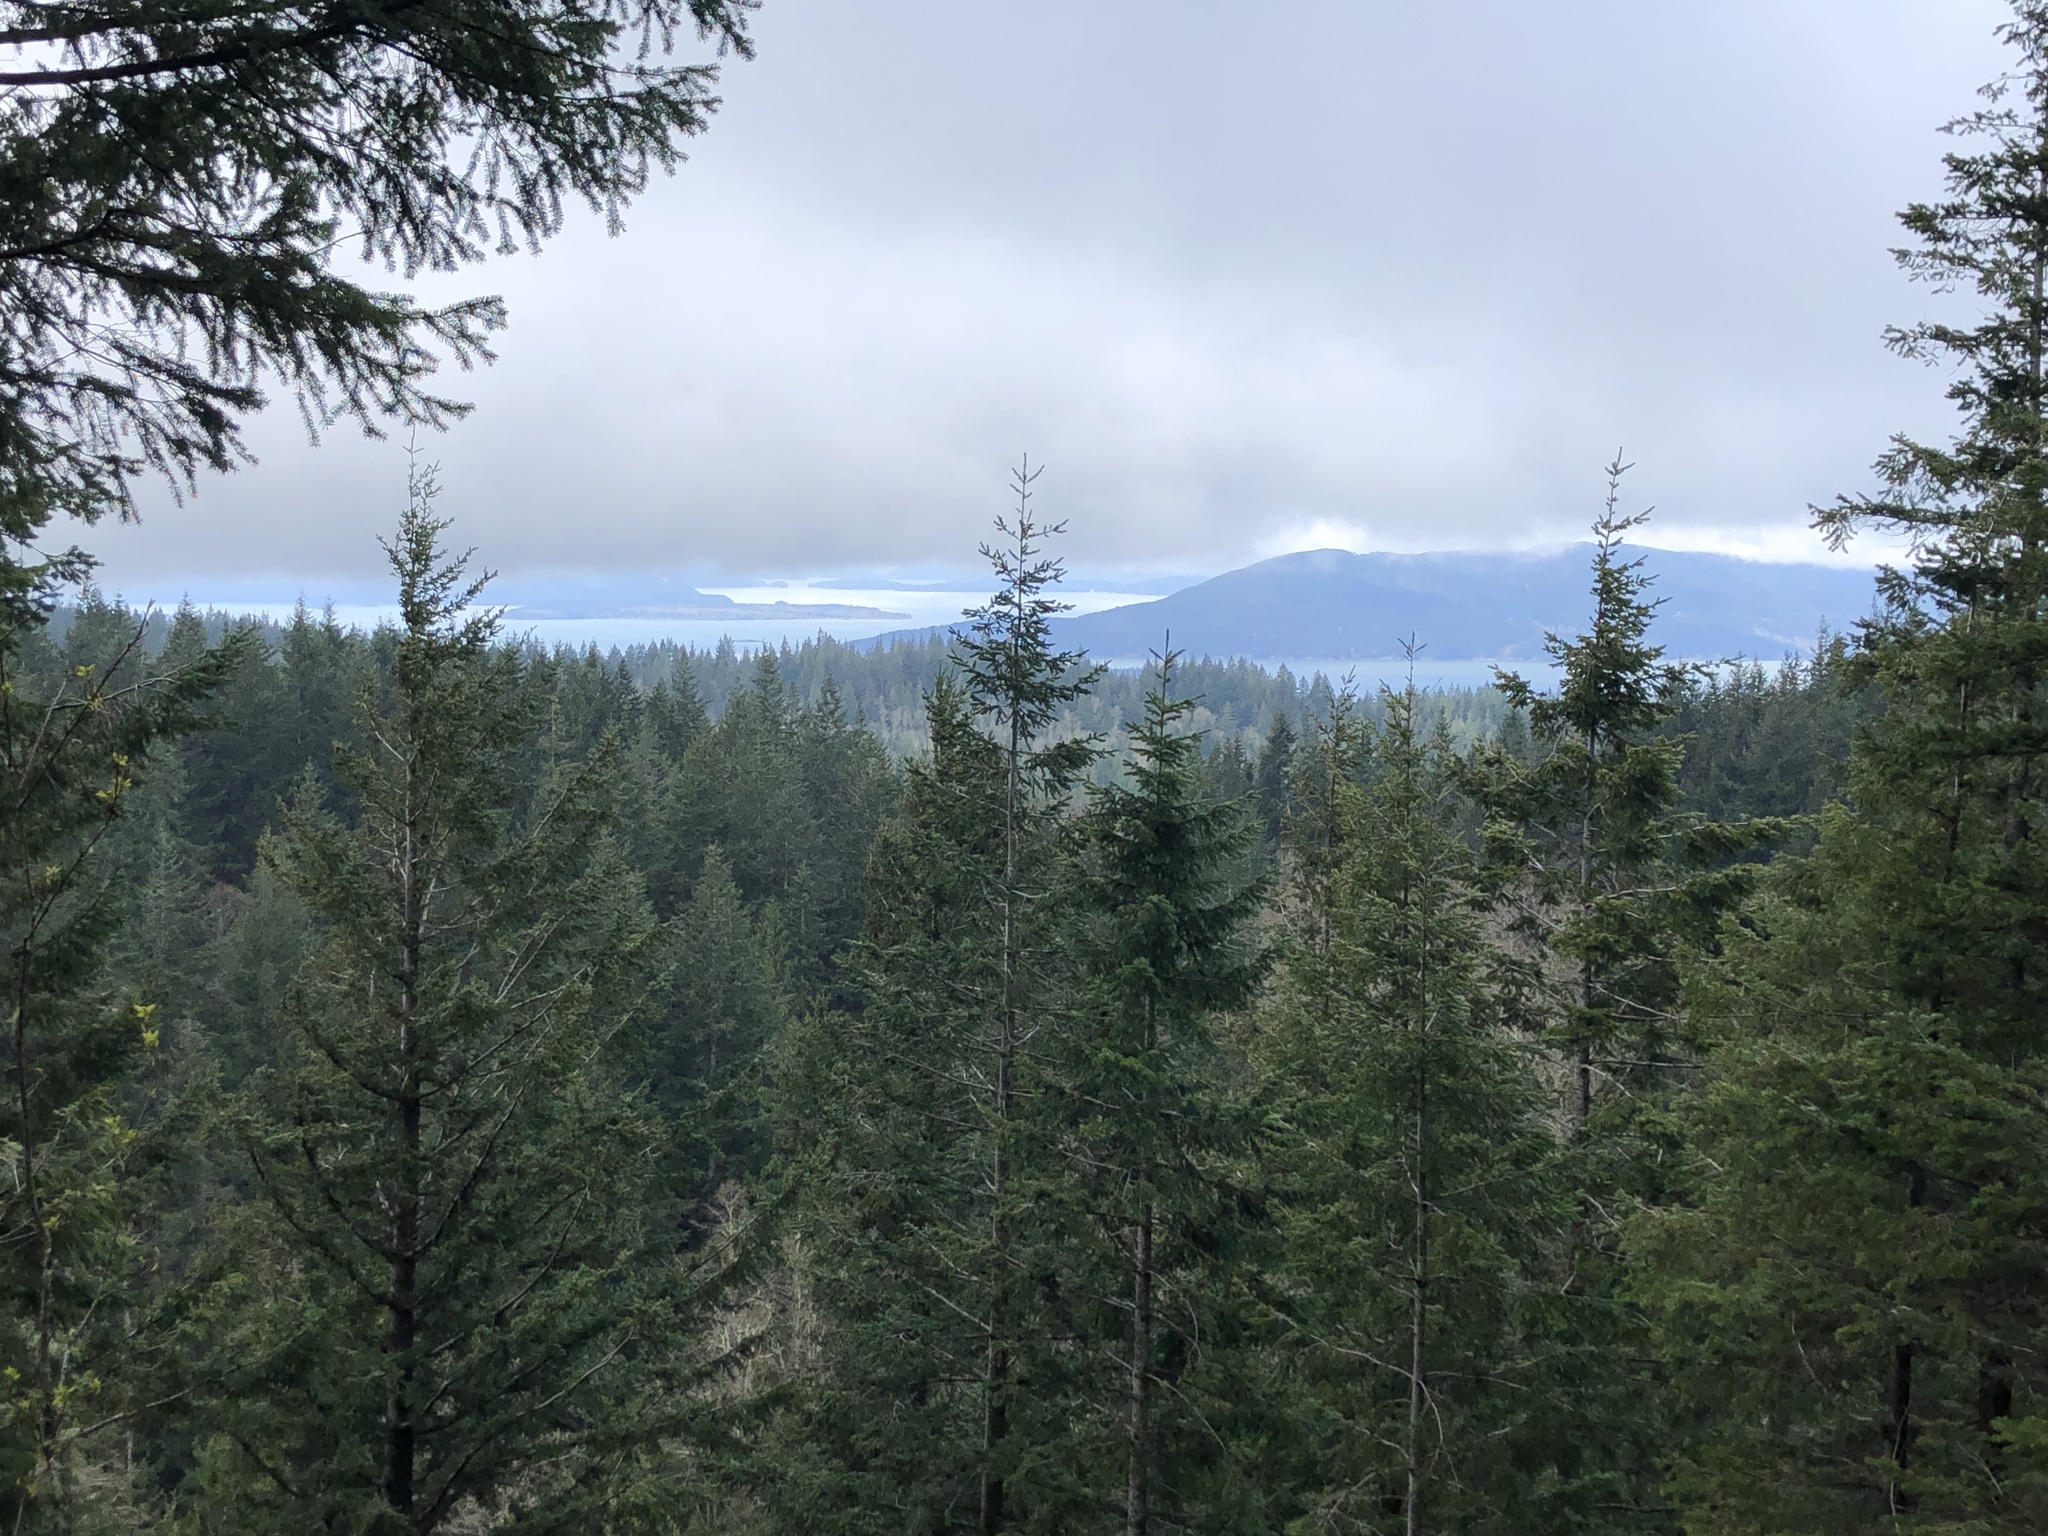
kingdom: Plantae
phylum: Tracheophyta
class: Pinopsida
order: Pinales
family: Pinaceae
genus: Pseudotsuga
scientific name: Pseudotsuga menziesii
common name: Douglas fir
